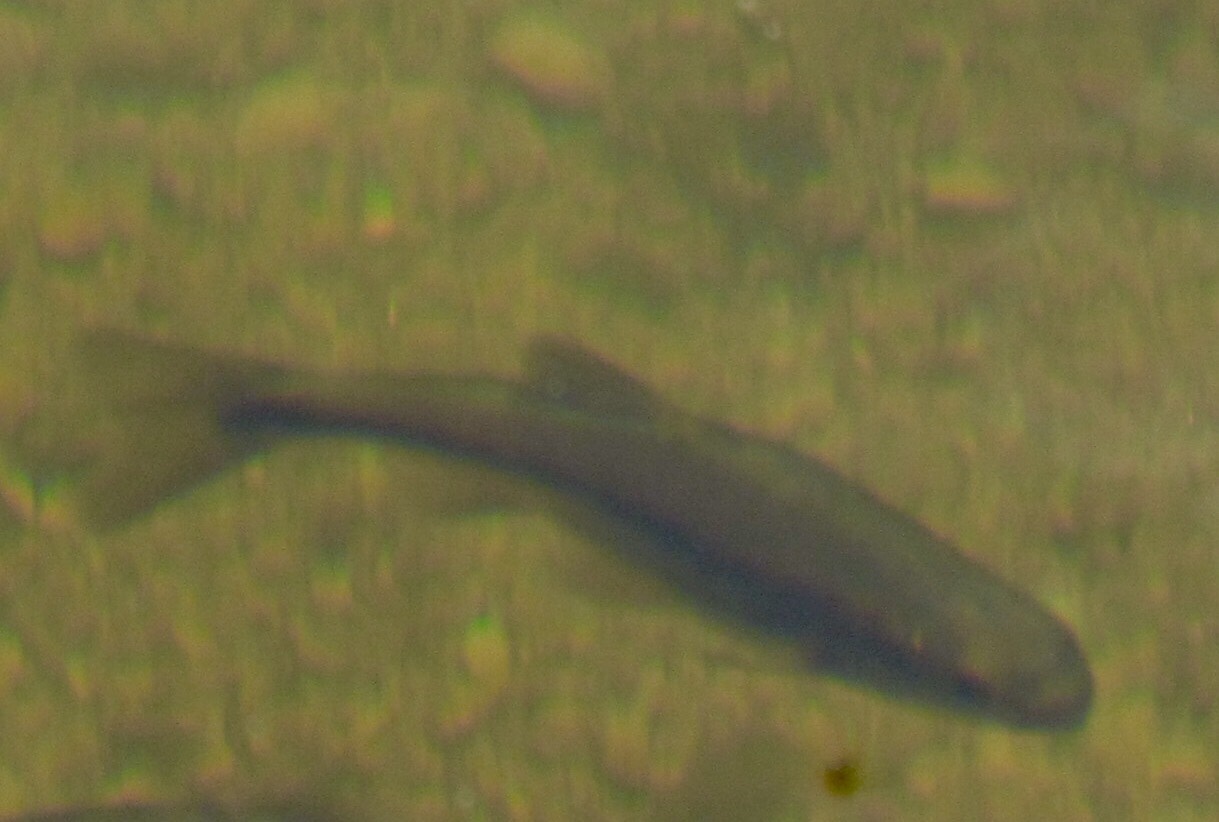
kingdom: Animalia
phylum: Chordata
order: Cypriniformes
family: Cyprinidae
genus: Gila
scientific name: Gila robusta
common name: Roundtail chub
